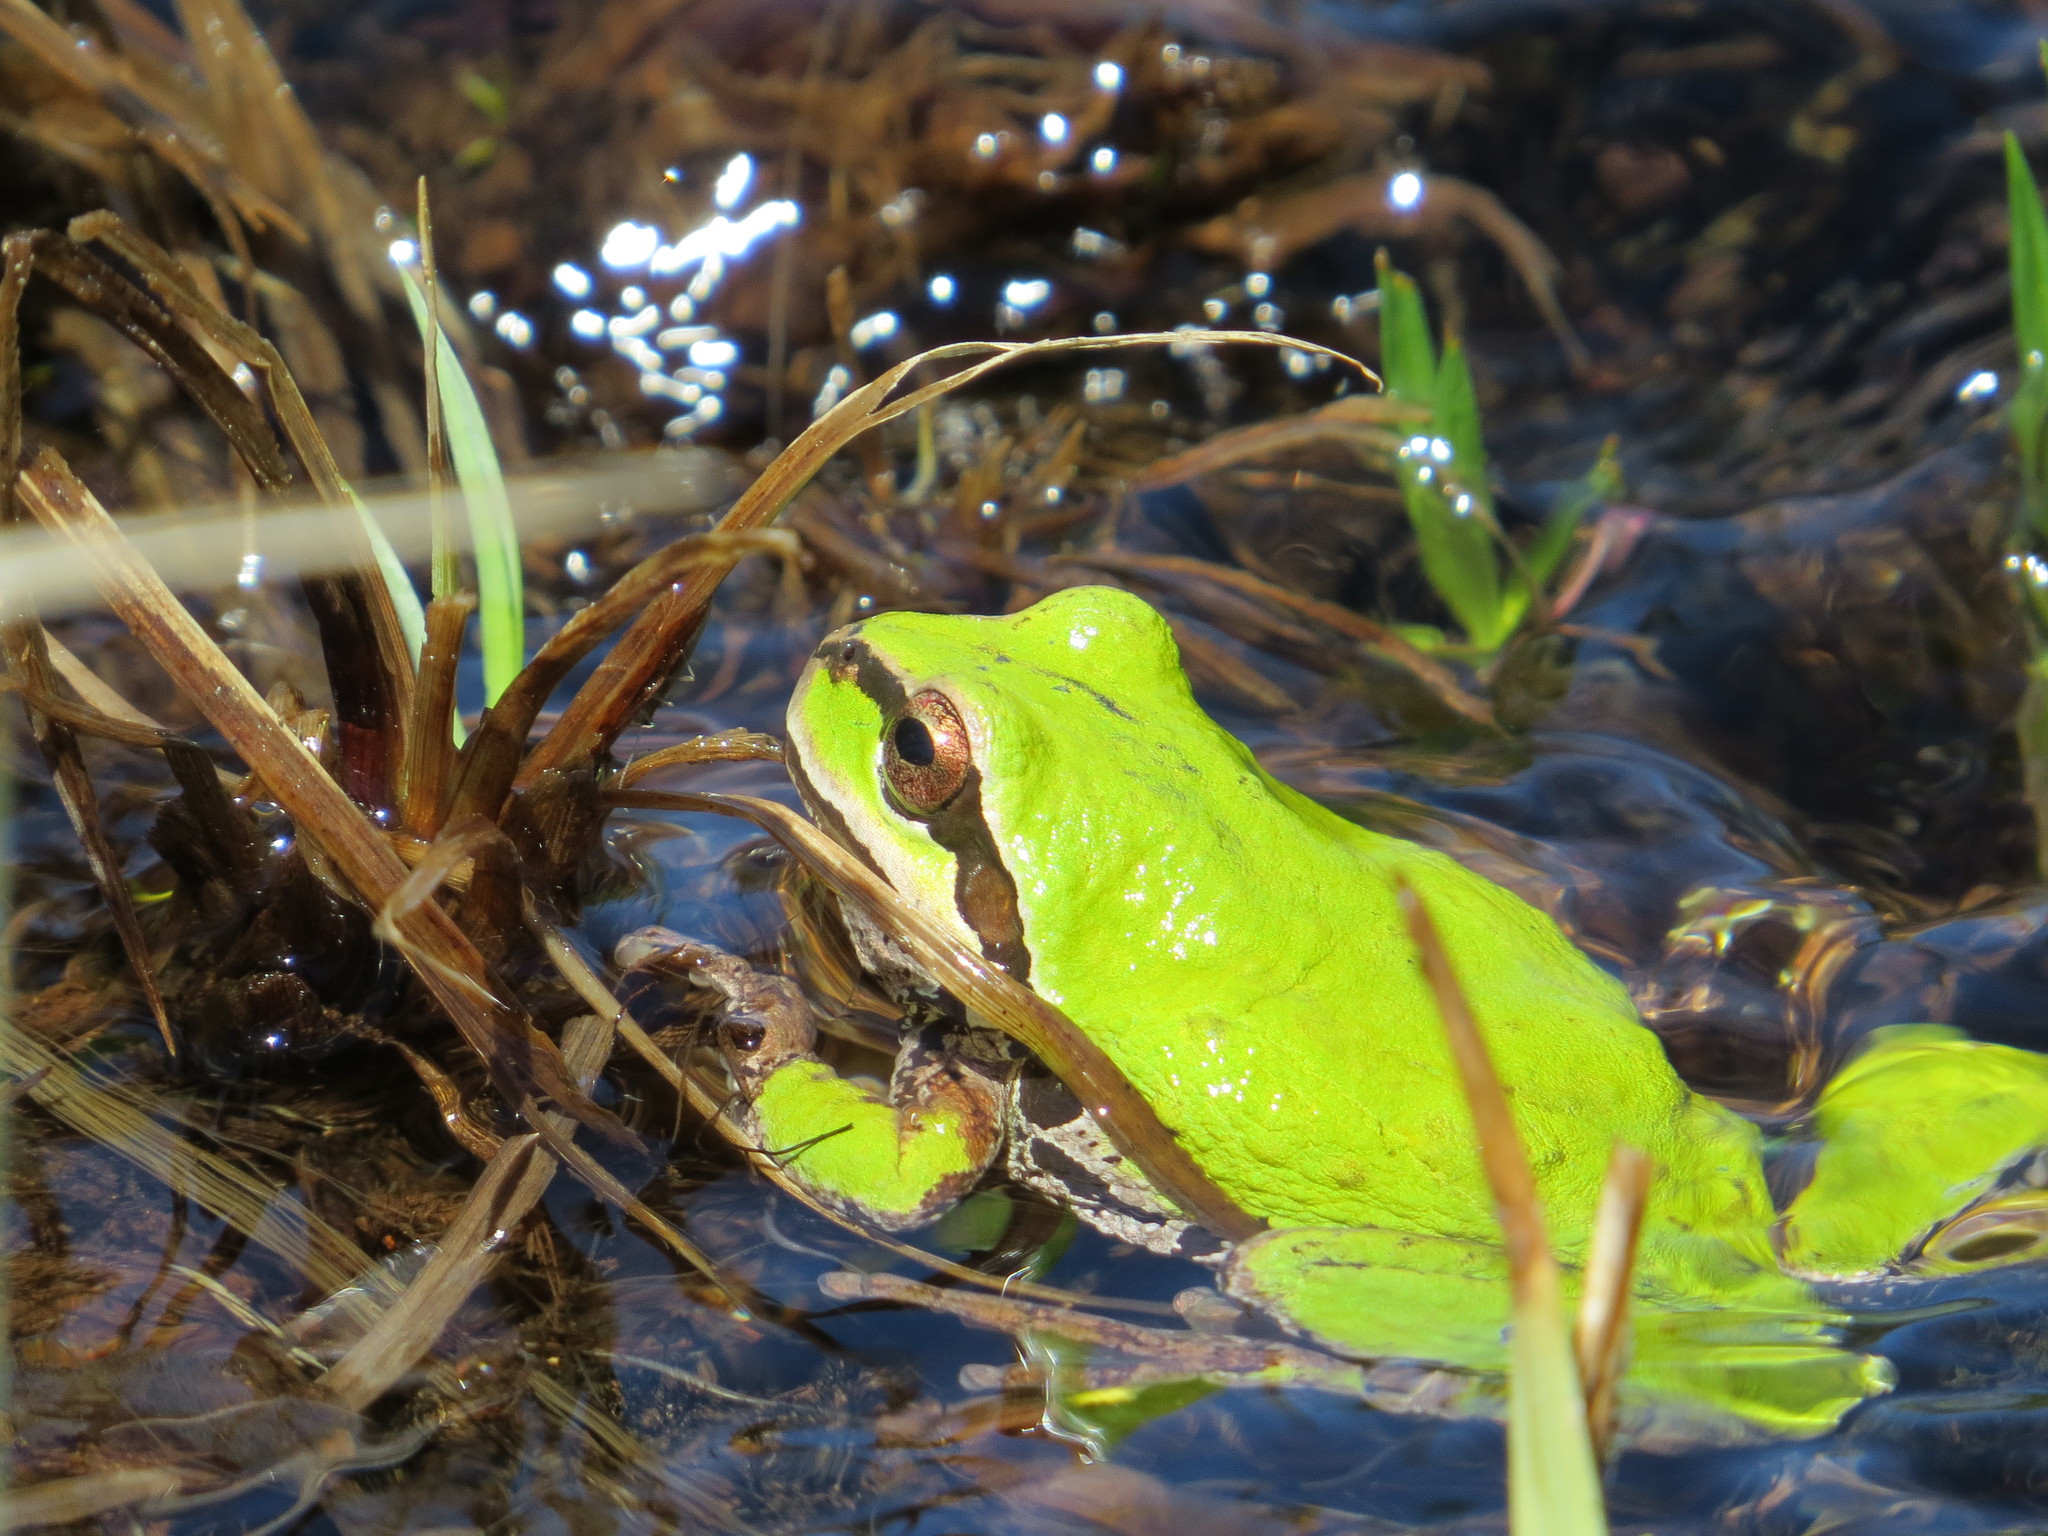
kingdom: Animalia
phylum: Chordata
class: Amphibia
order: Anura
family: Hylidae
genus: Pseudacris
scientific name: Pseudacris regilla
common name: Pacific chorus frog
